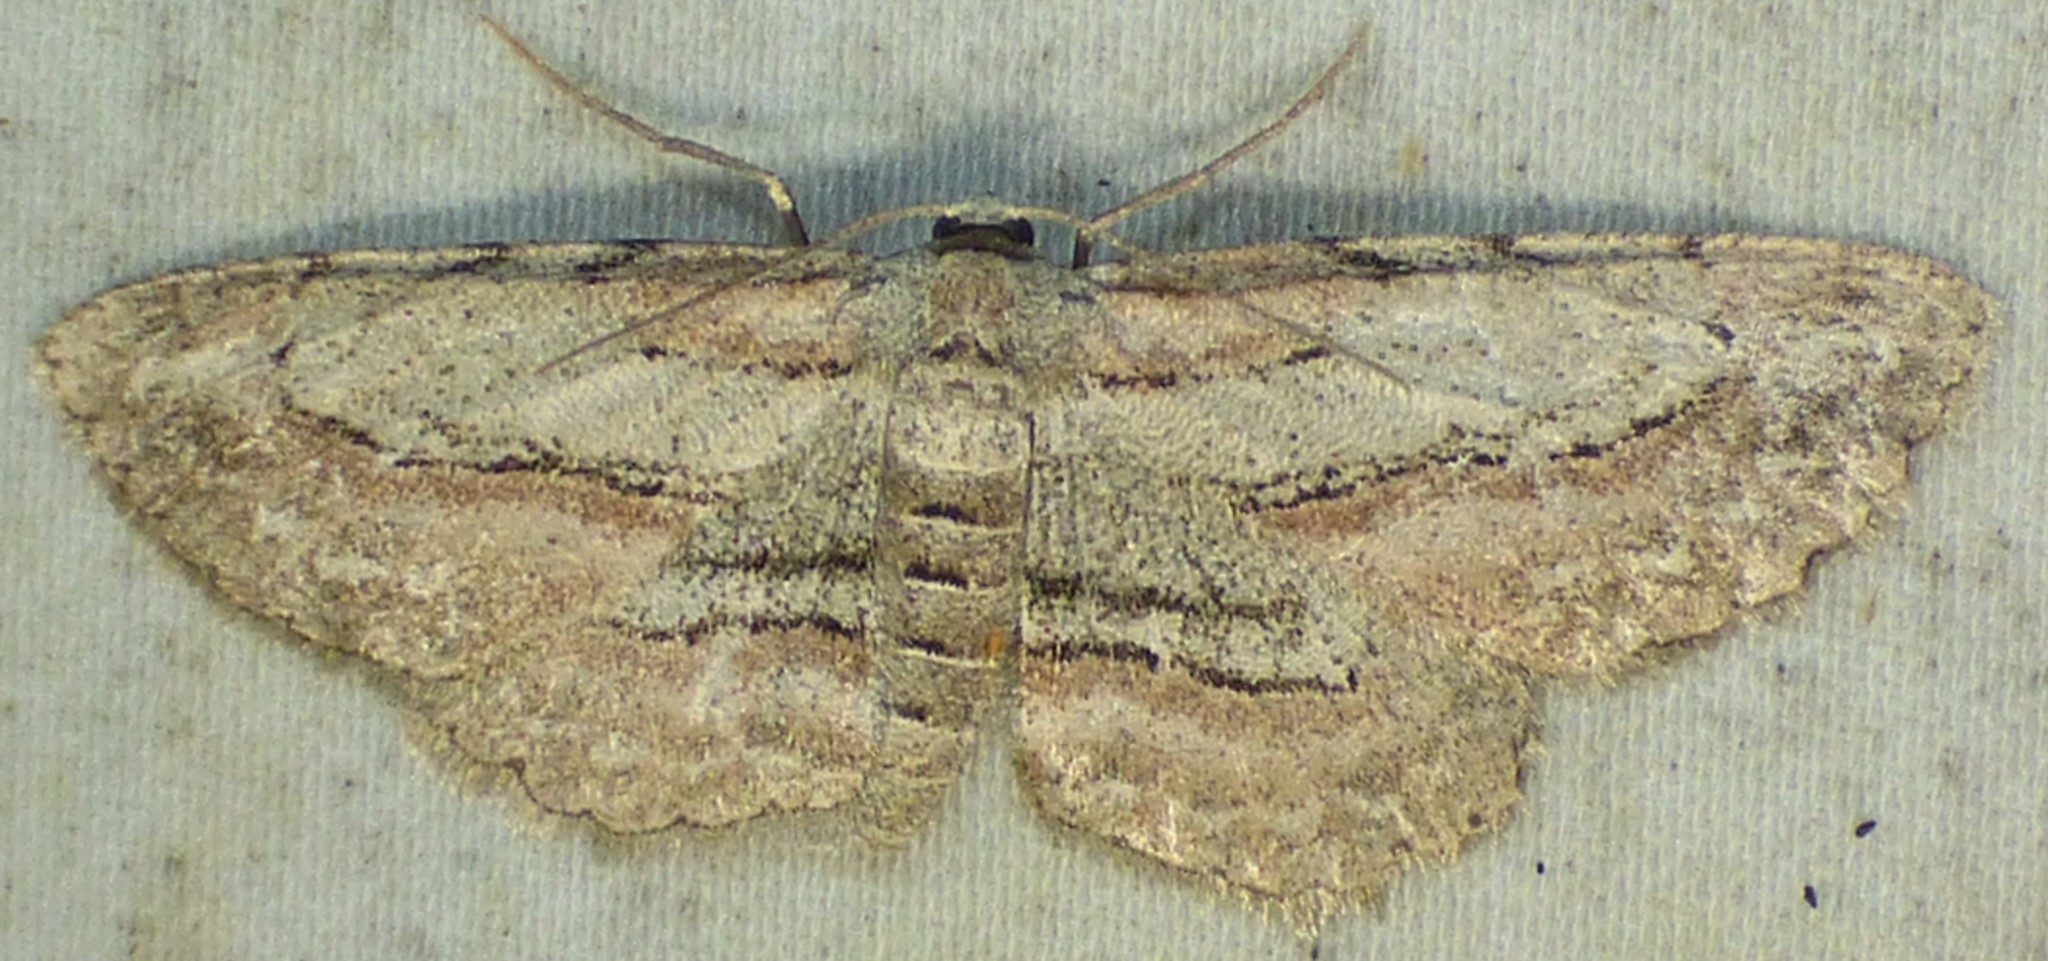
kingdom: Animalia
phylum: Arthropoda
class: Insecta
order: Lepidoptera
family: Geometridae
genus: Glena
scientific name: Glena plumosaria
